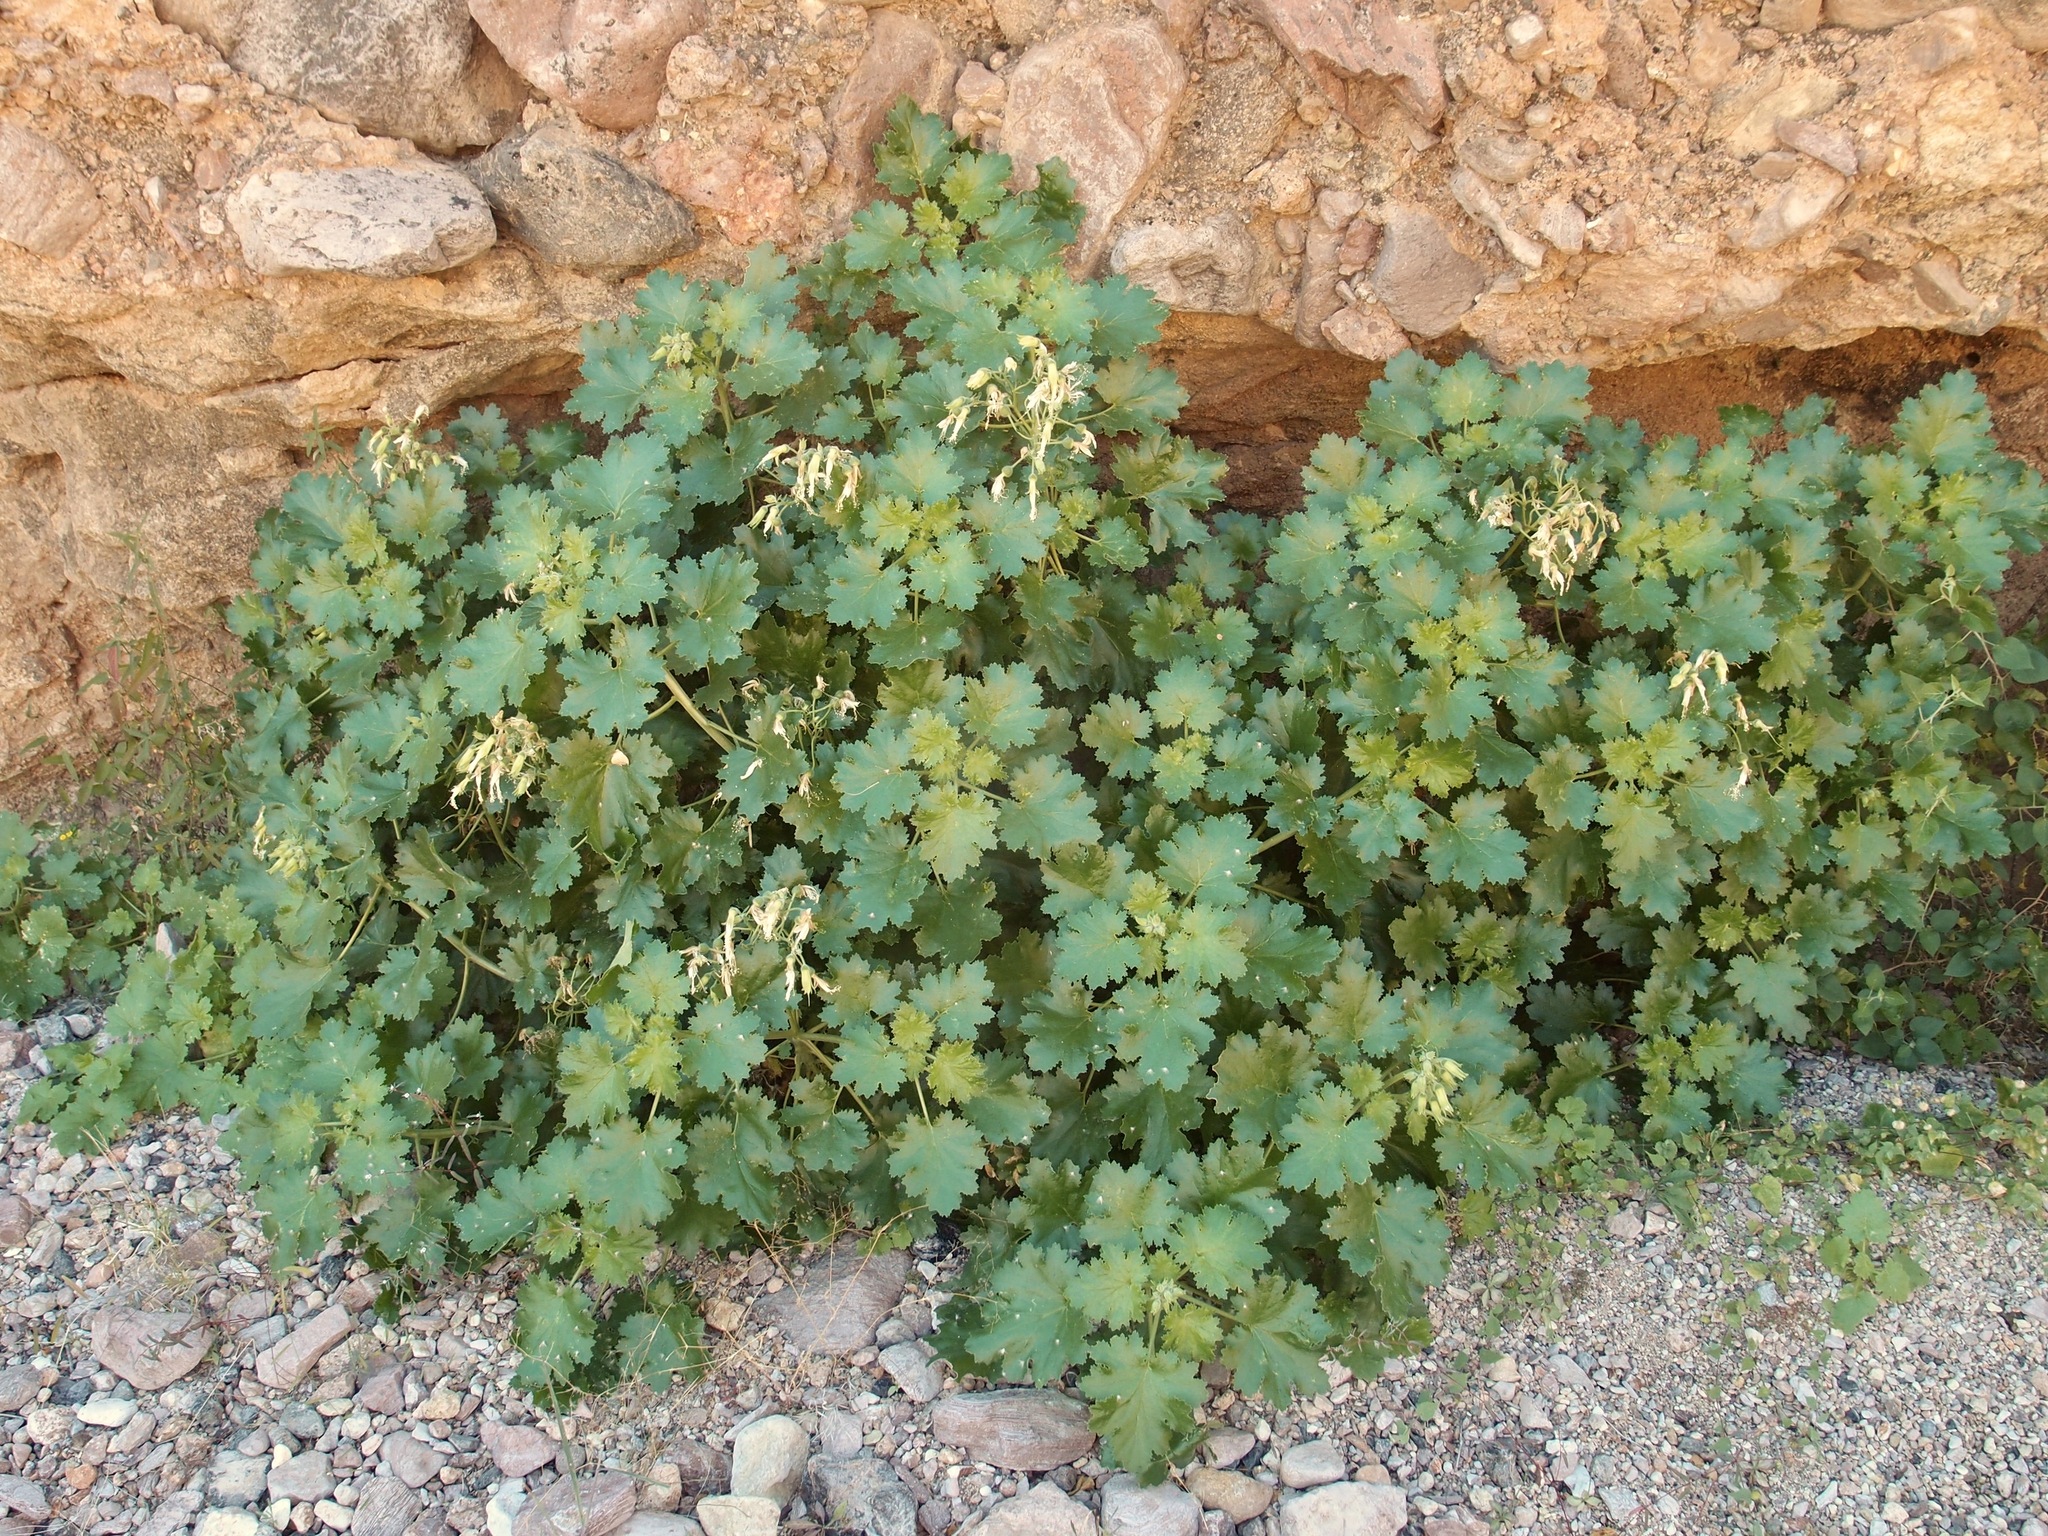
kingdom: Plantae
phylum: Tracheophyta
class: Magnoliopsida
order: Cornales
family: Loasaceae
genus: Eucnide
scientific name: Eucnide cordata
